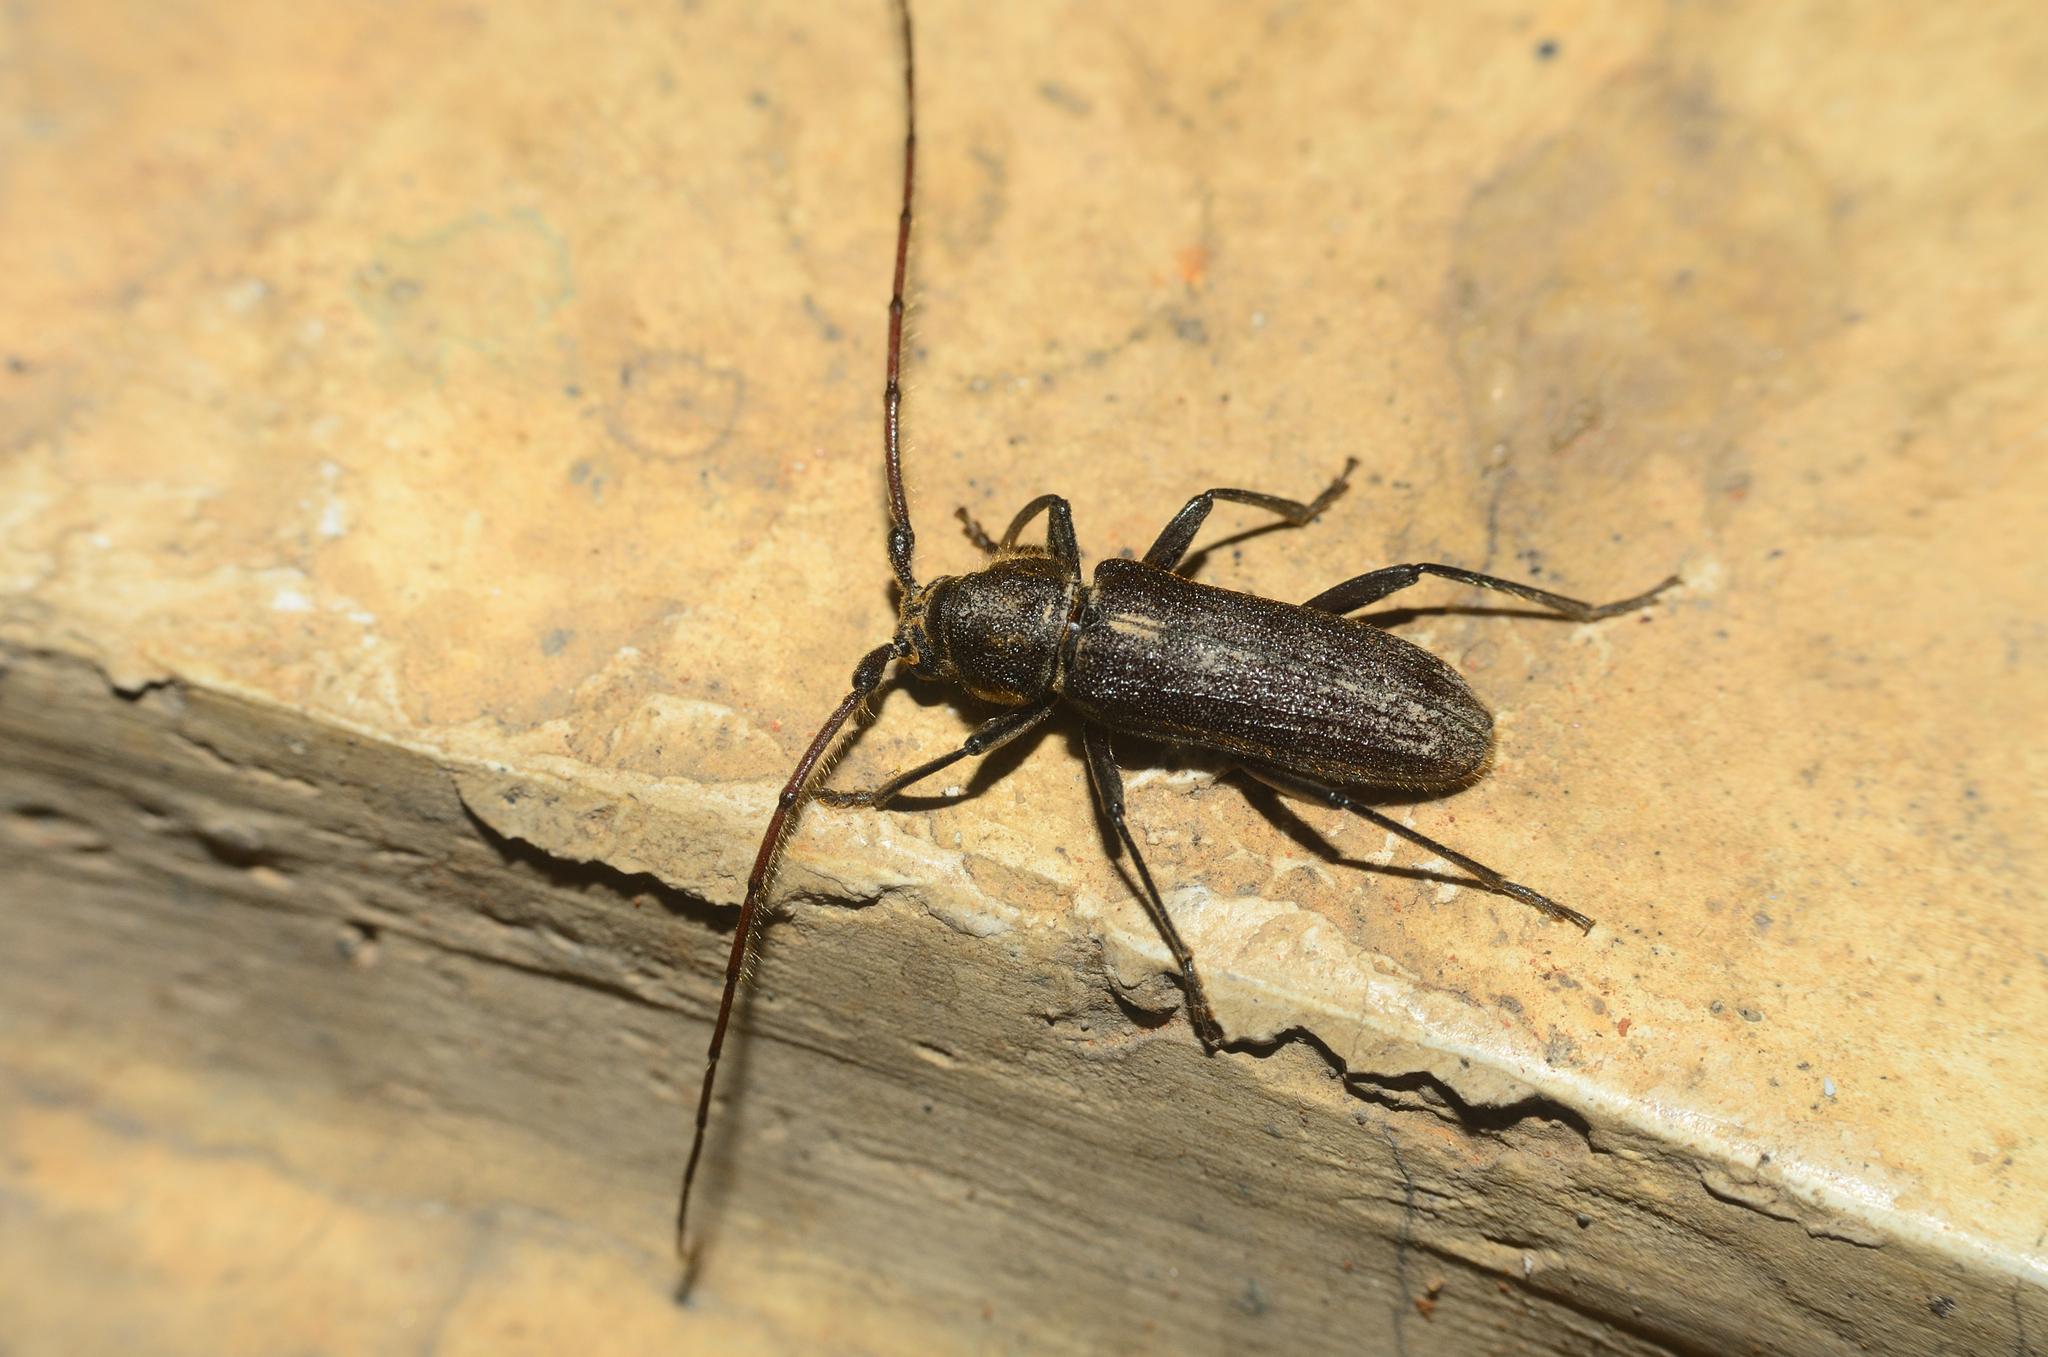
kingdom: Animalia
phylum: Arthropoda
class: Insecta
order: Coleoptera
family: Cerambycidae
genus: Stromatium
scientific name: Stromatium barbatum
